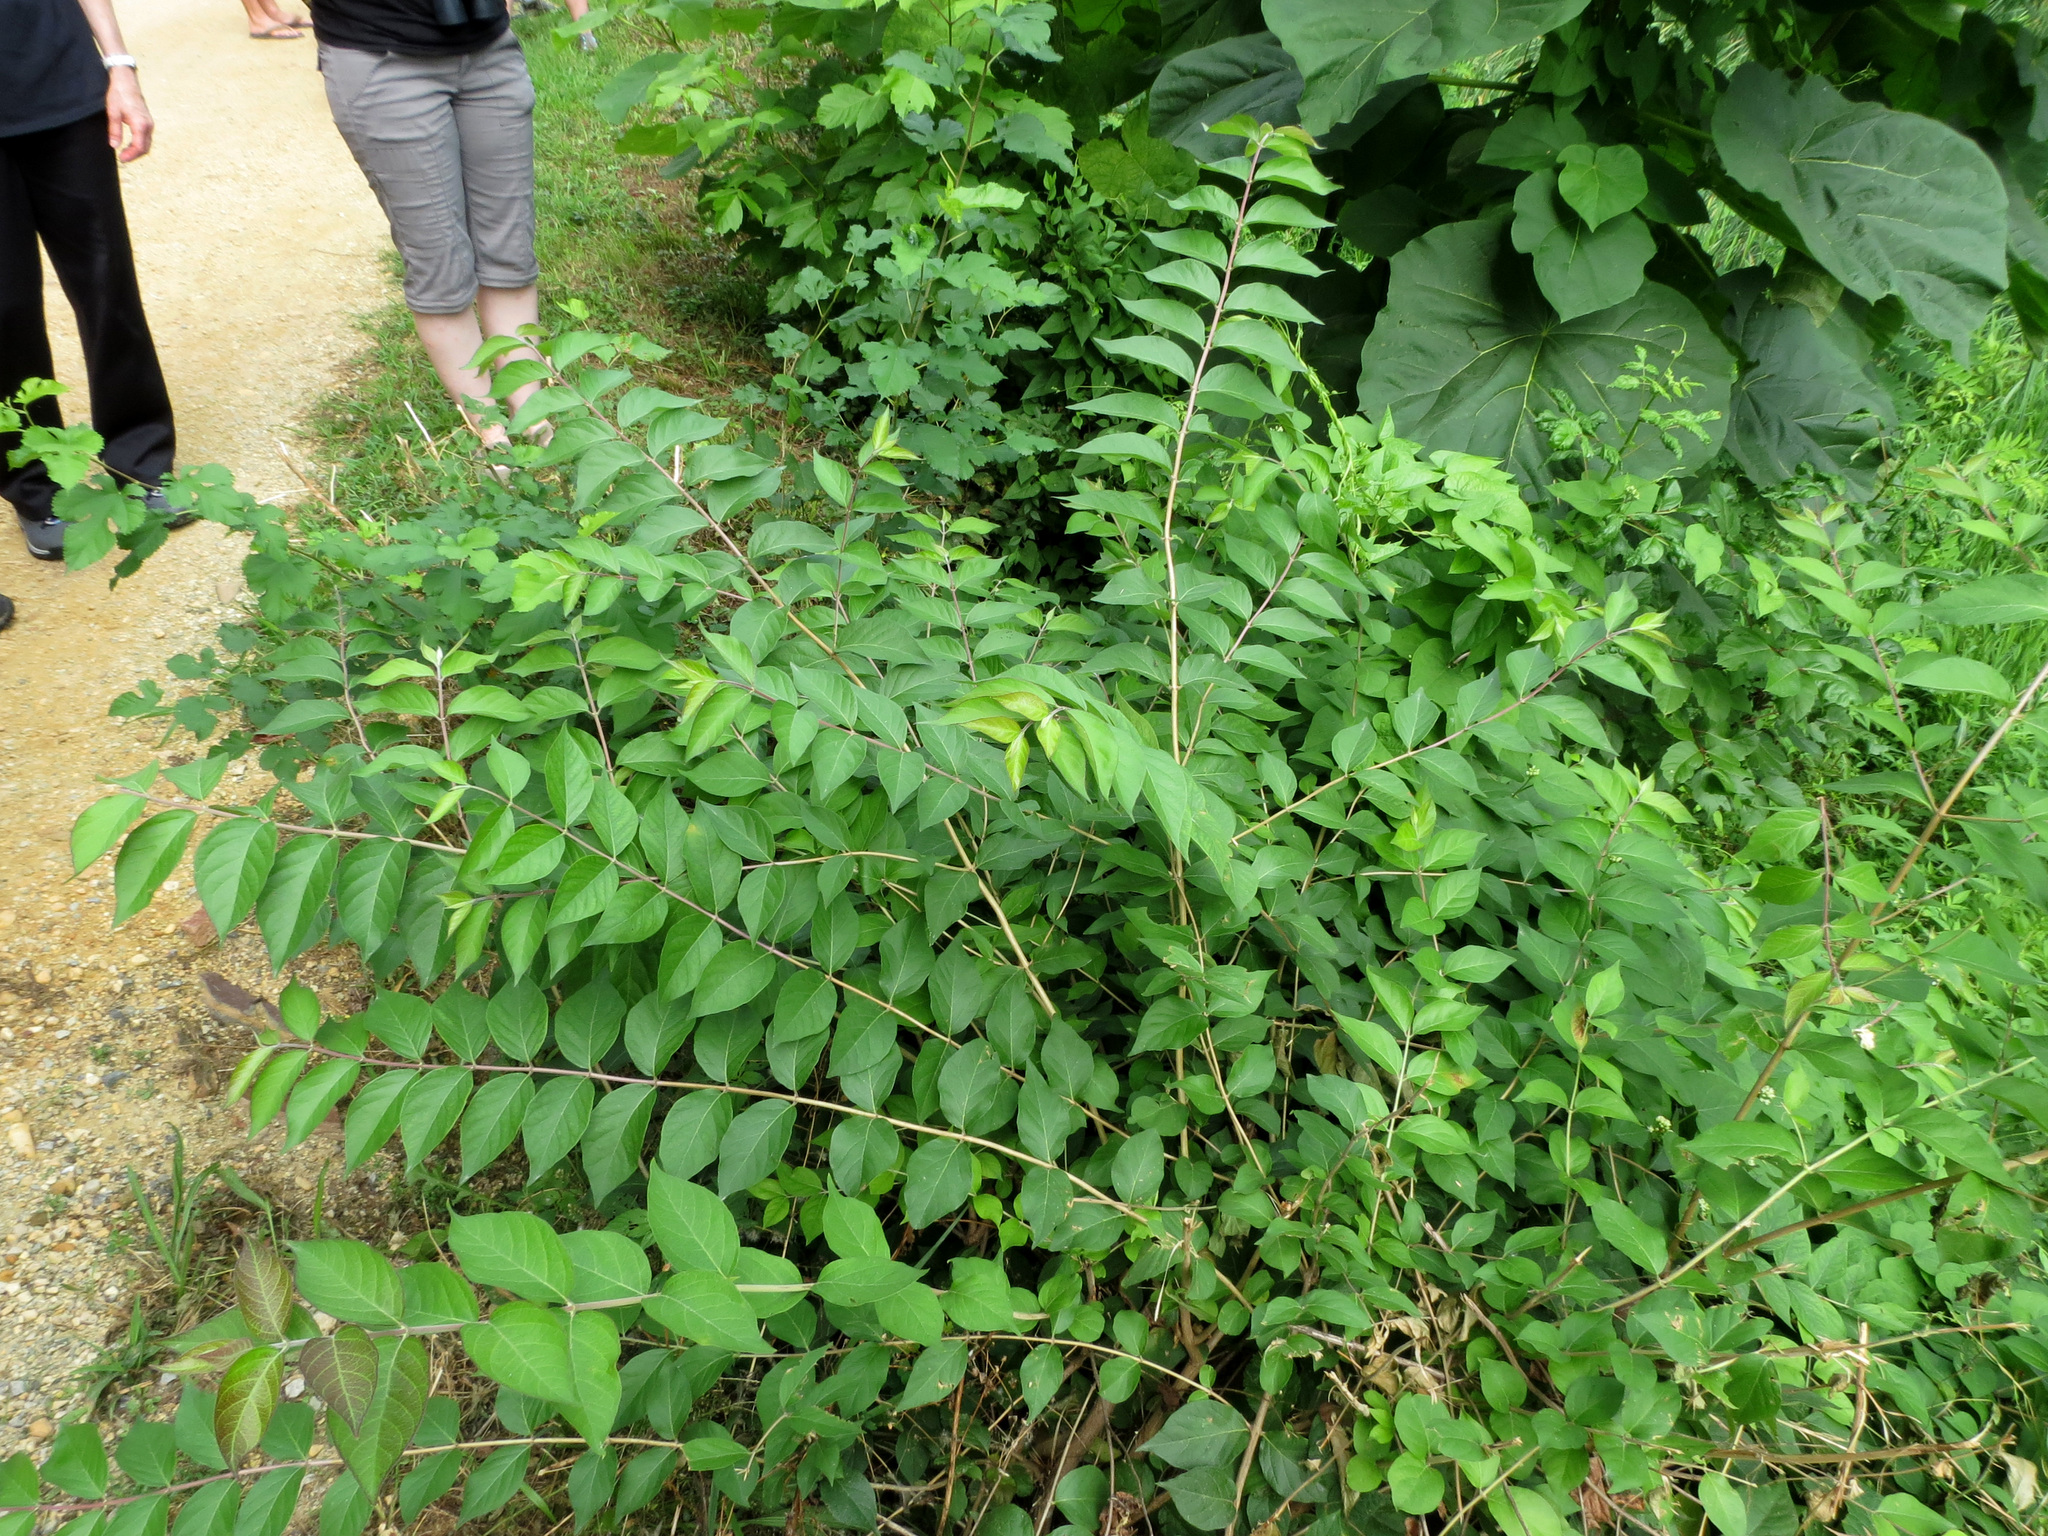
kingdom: Plantae
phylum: Tracheophyta
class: Magnoliopsida
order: Dipsacales
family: Caprifoliaceae
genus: Lonicera
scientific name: Lonicera maackii
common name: Amur honeysuckle
